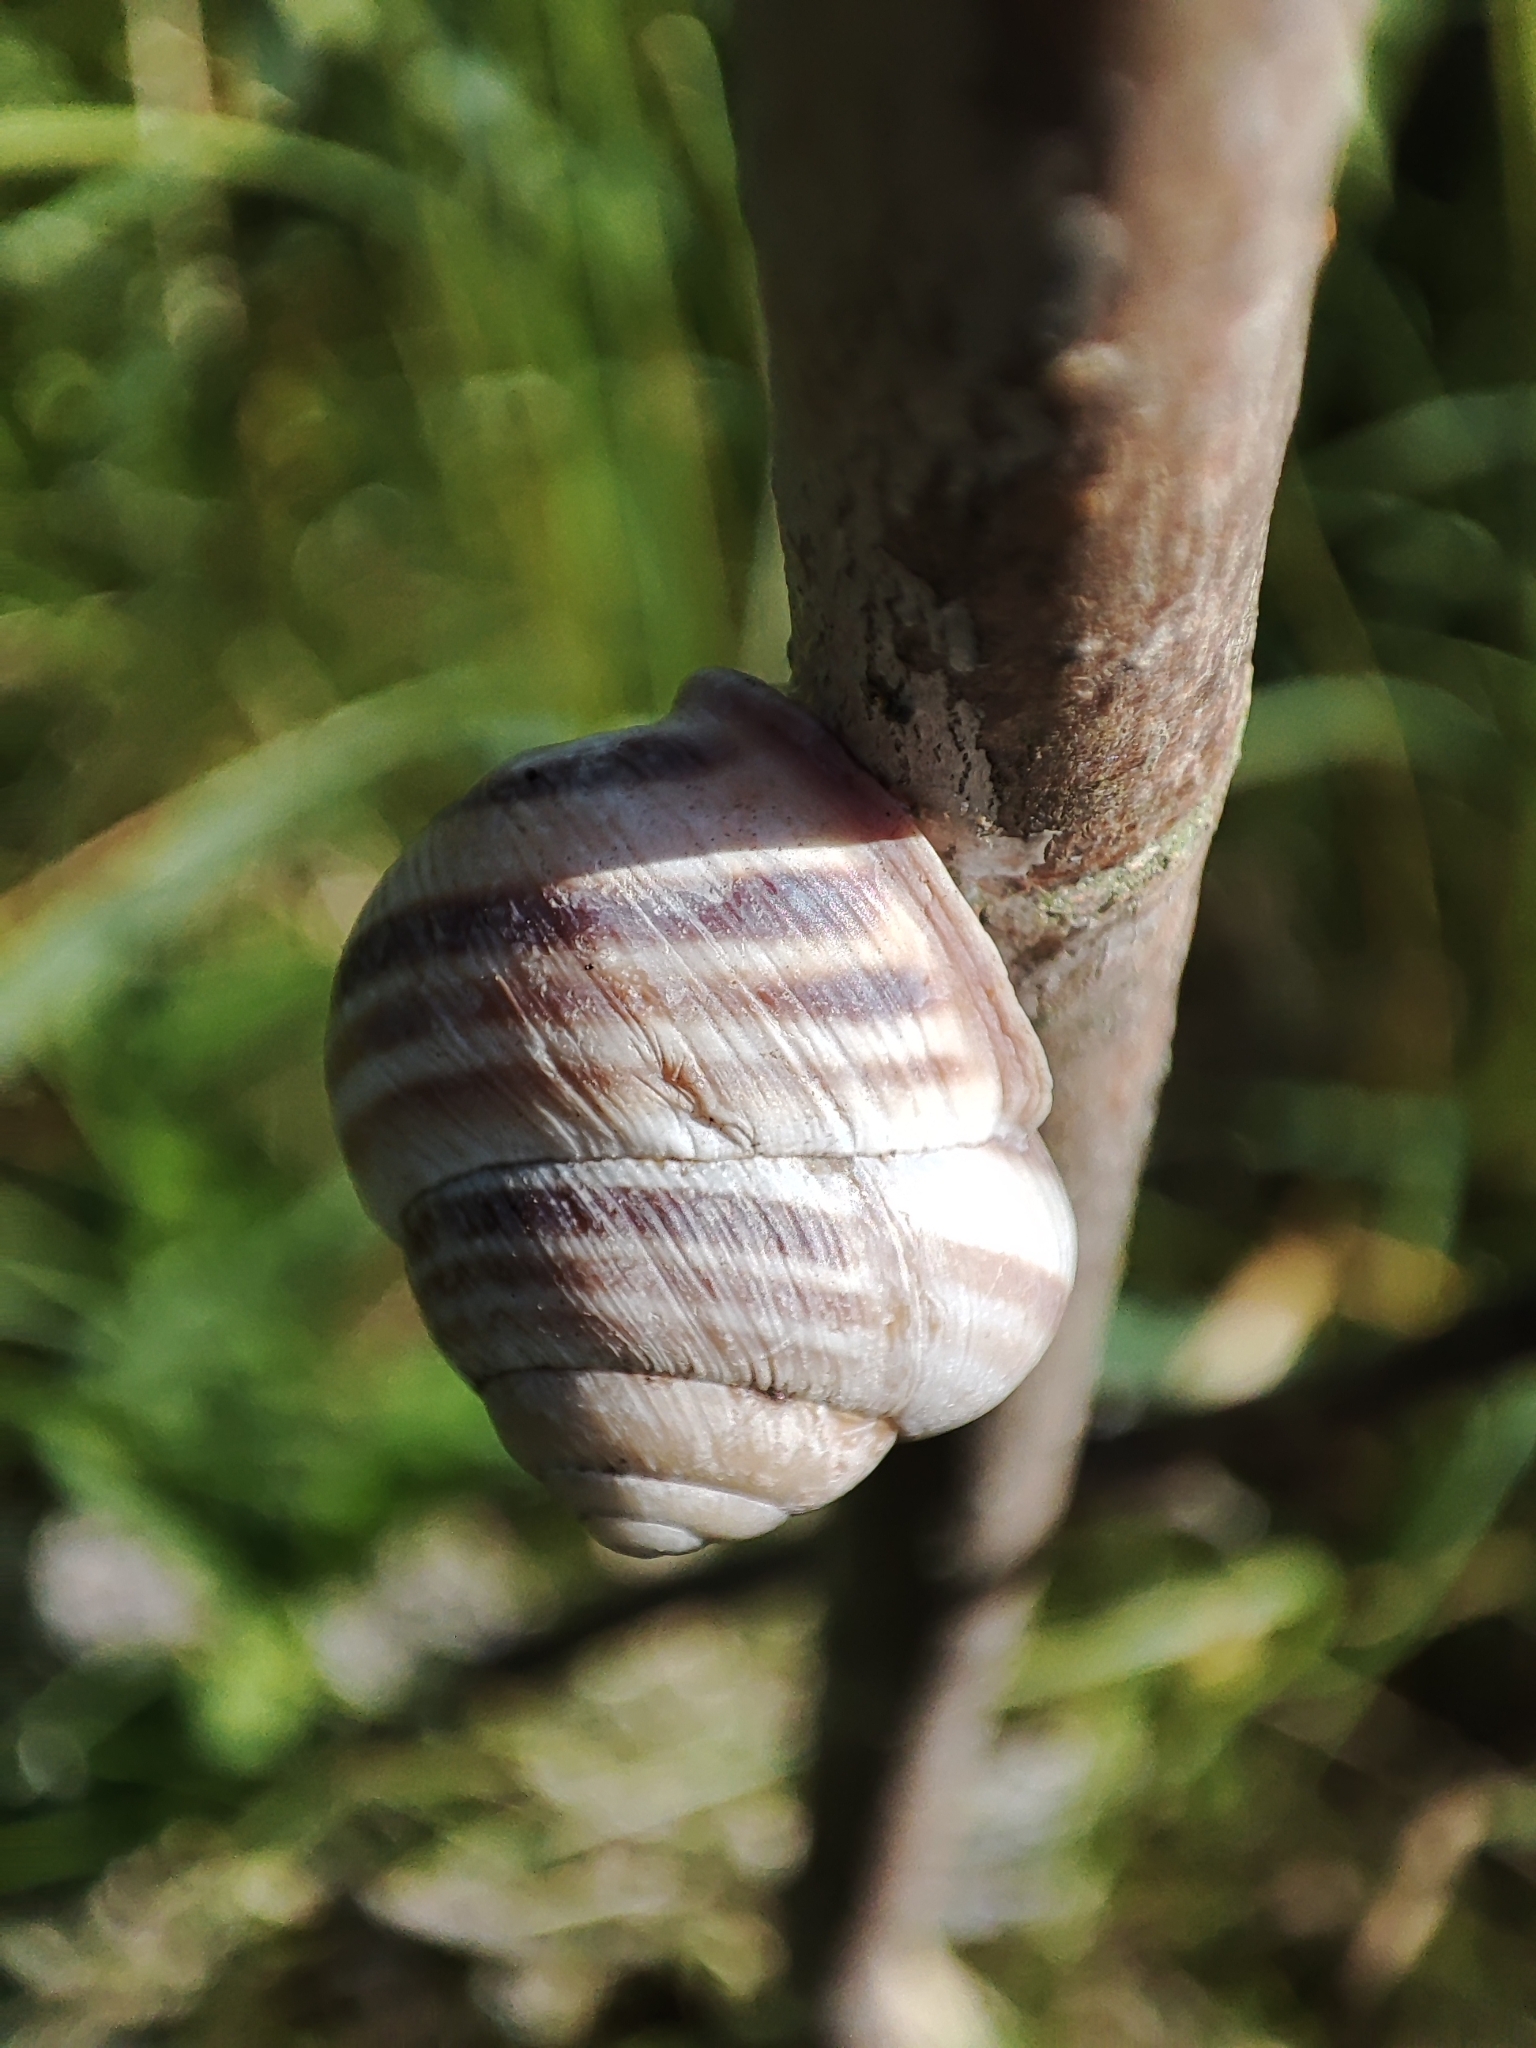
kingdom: Animalia
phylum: Mollusca
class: Gastropoda
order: Stylommatophora
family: Helicidae
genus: Caucasotachea
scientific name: Caucasotachea vindobonensis
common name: European helicid land snail
